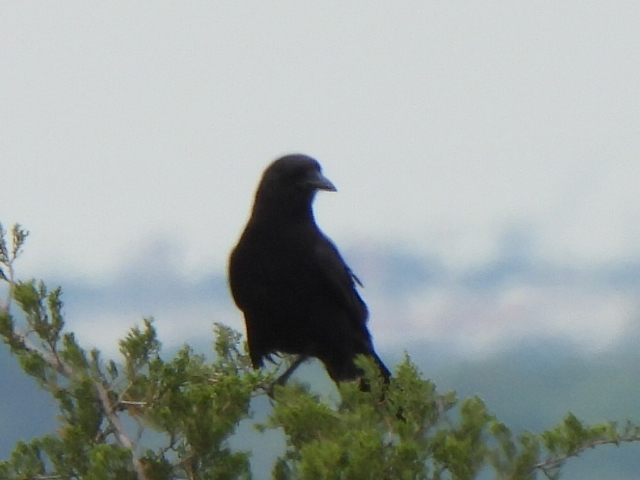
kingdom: Animalia
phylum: Chordata
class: Aves
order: Passeriformes
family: Corvidae
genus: Corvus
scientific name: Corvus brachyrhynchos
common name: American crow
